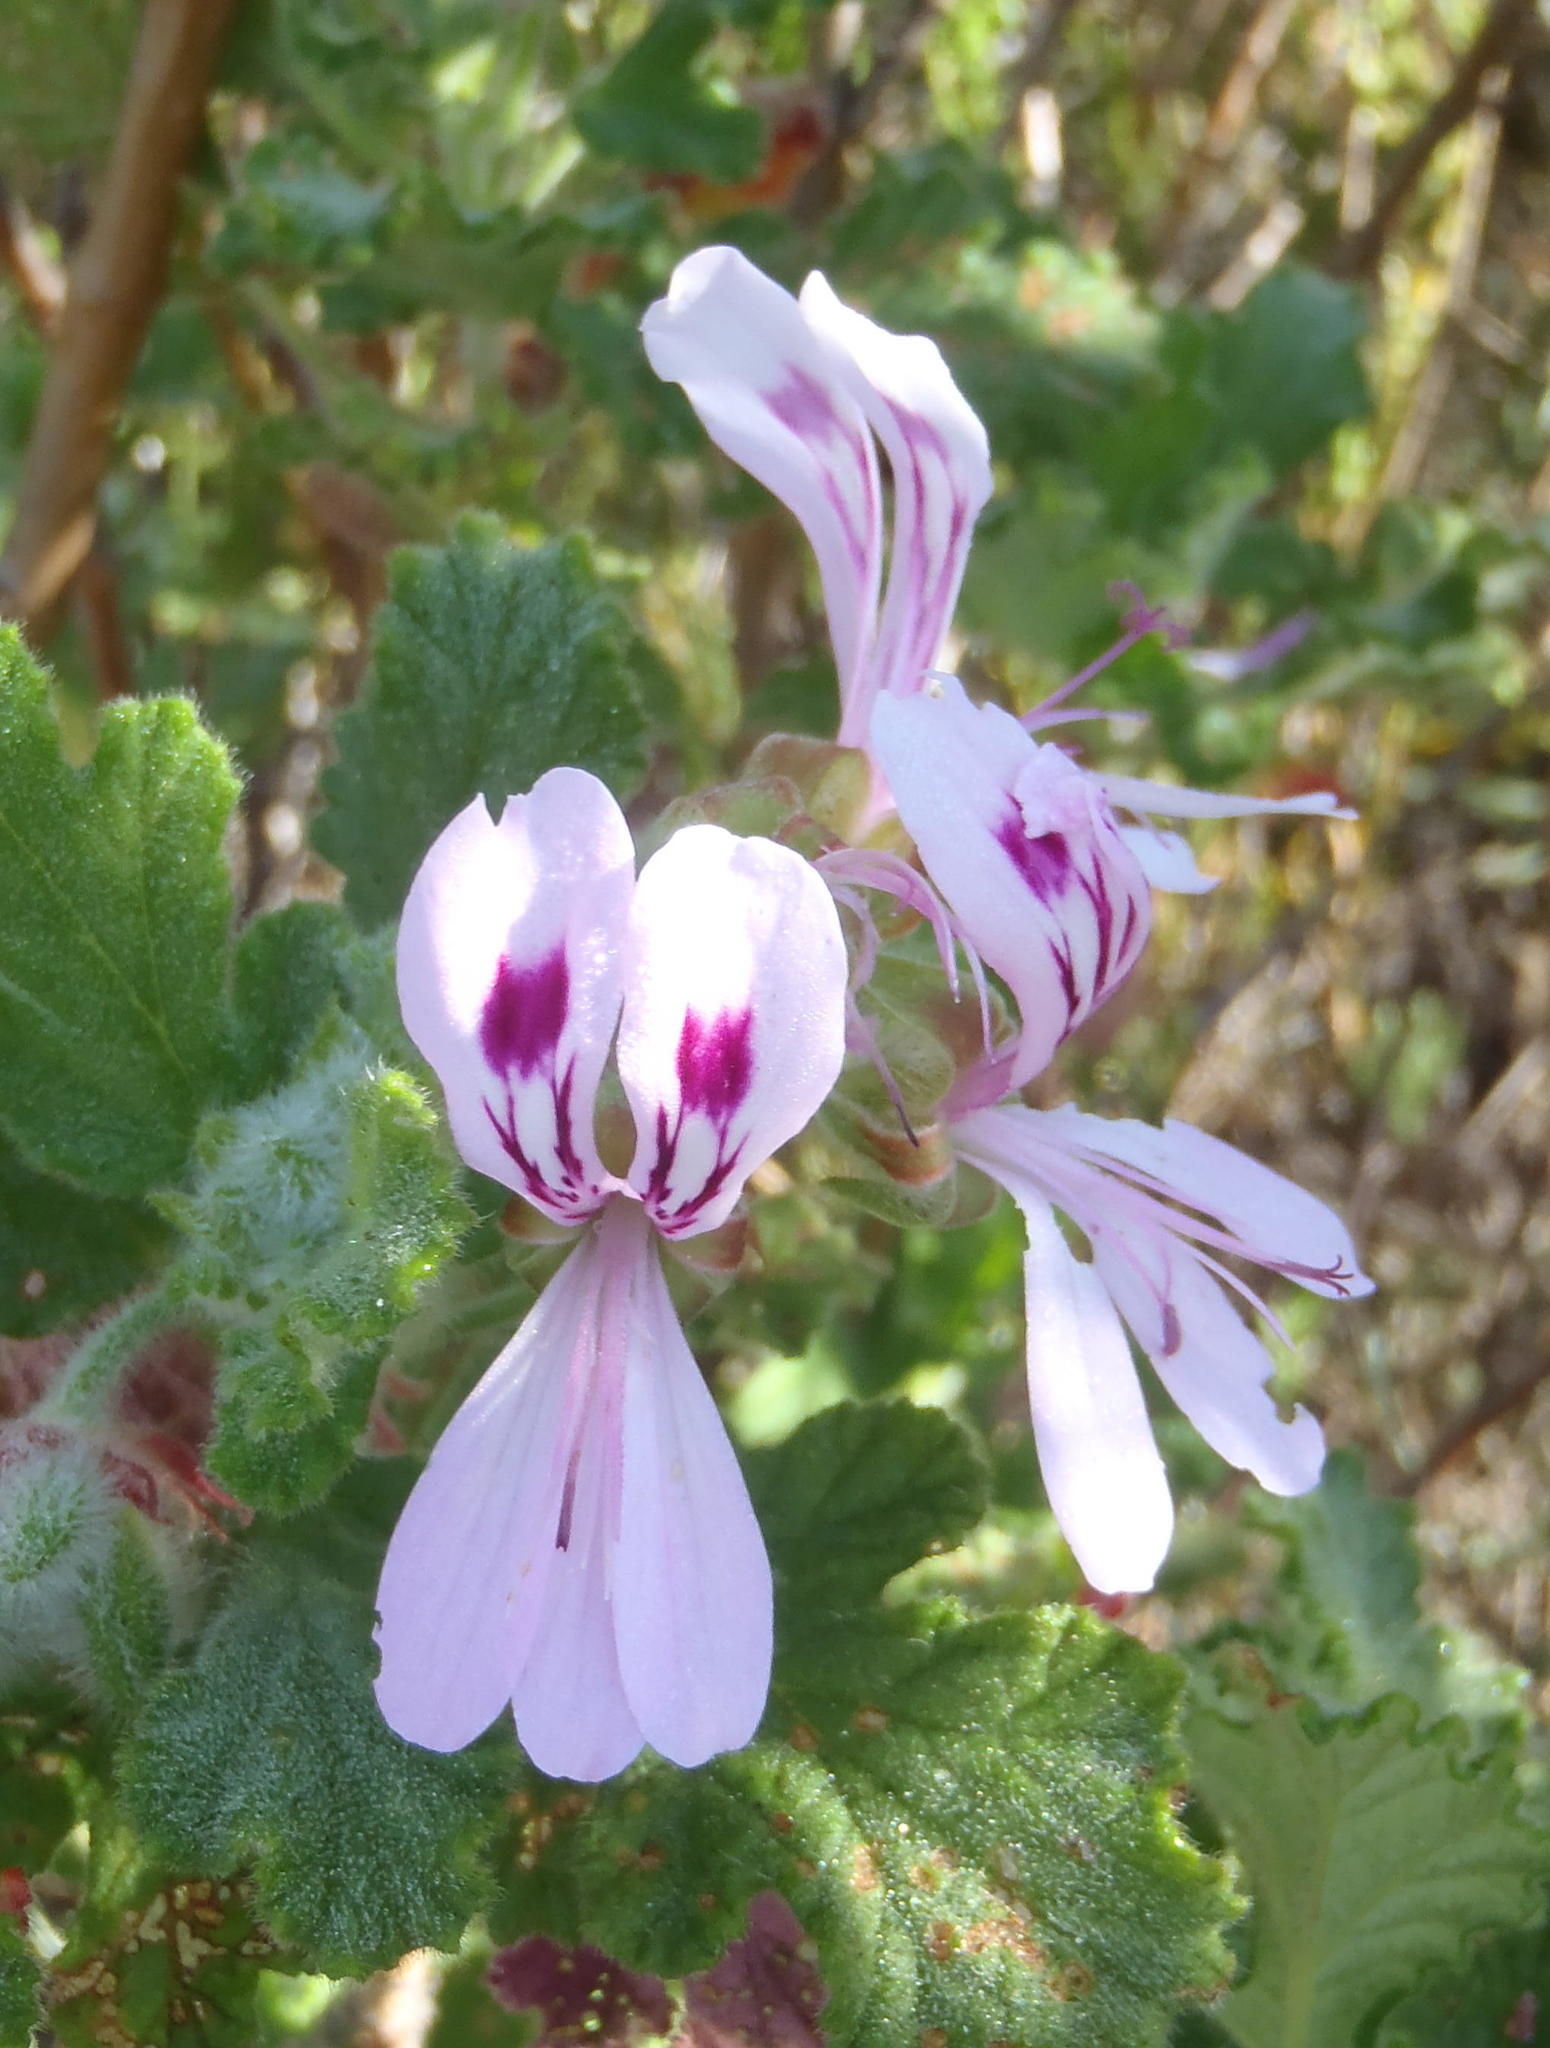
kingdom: Plantae
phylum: Tracheophyta
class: Magnoliopsida
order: Geraniales
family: Geraniaceae
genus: Pelargonium
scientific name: Pelargonium panduriforme
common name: Oakleaf garden geranium
